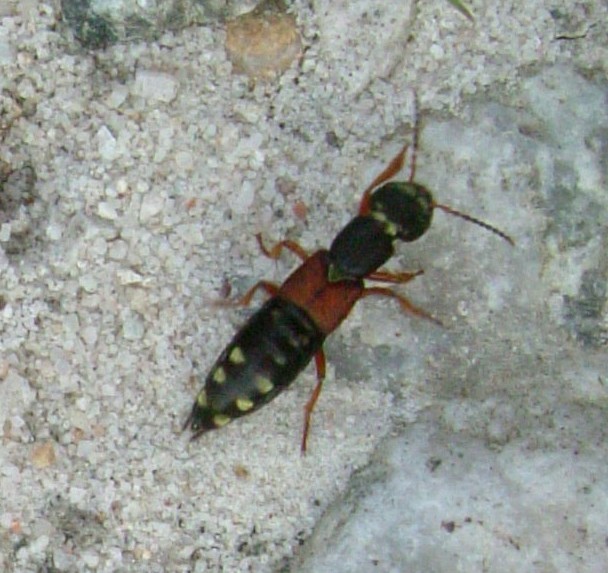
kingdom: Animalia
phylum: Arthropoda
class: Insecta
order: Coleoptera
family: Staphylinidae
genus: Staphylinus
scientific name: Staphylinus erythropterus
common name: Staph beetle
